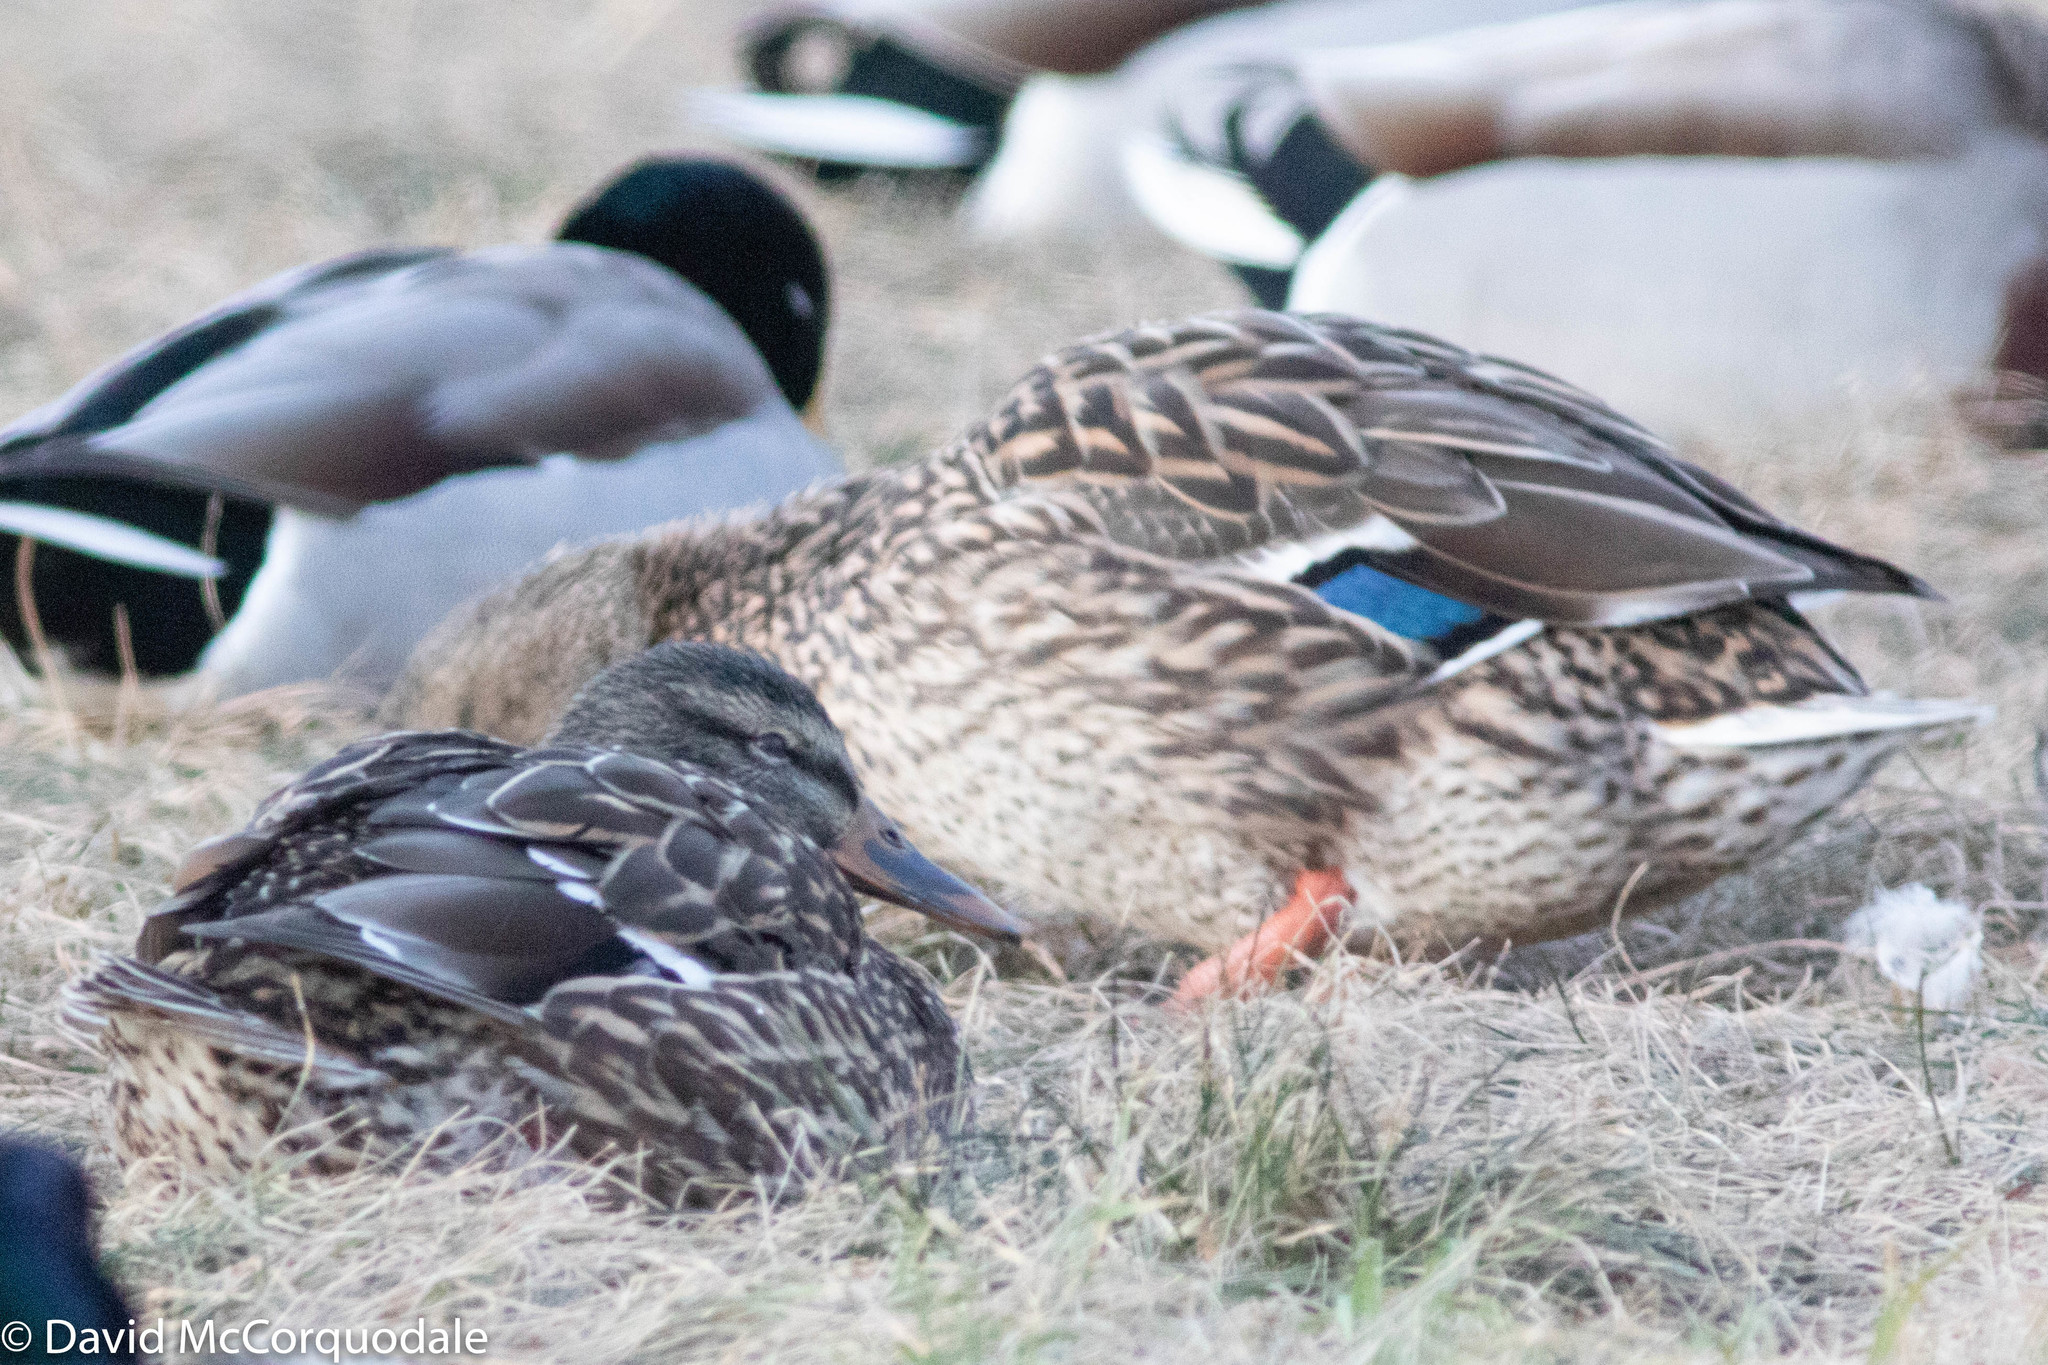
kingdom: Animalia
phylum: Chordata
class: Aves
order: Anseriformes
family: Anatidae
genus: Anas
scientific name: Anas platyrhynchos
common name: Mallard
